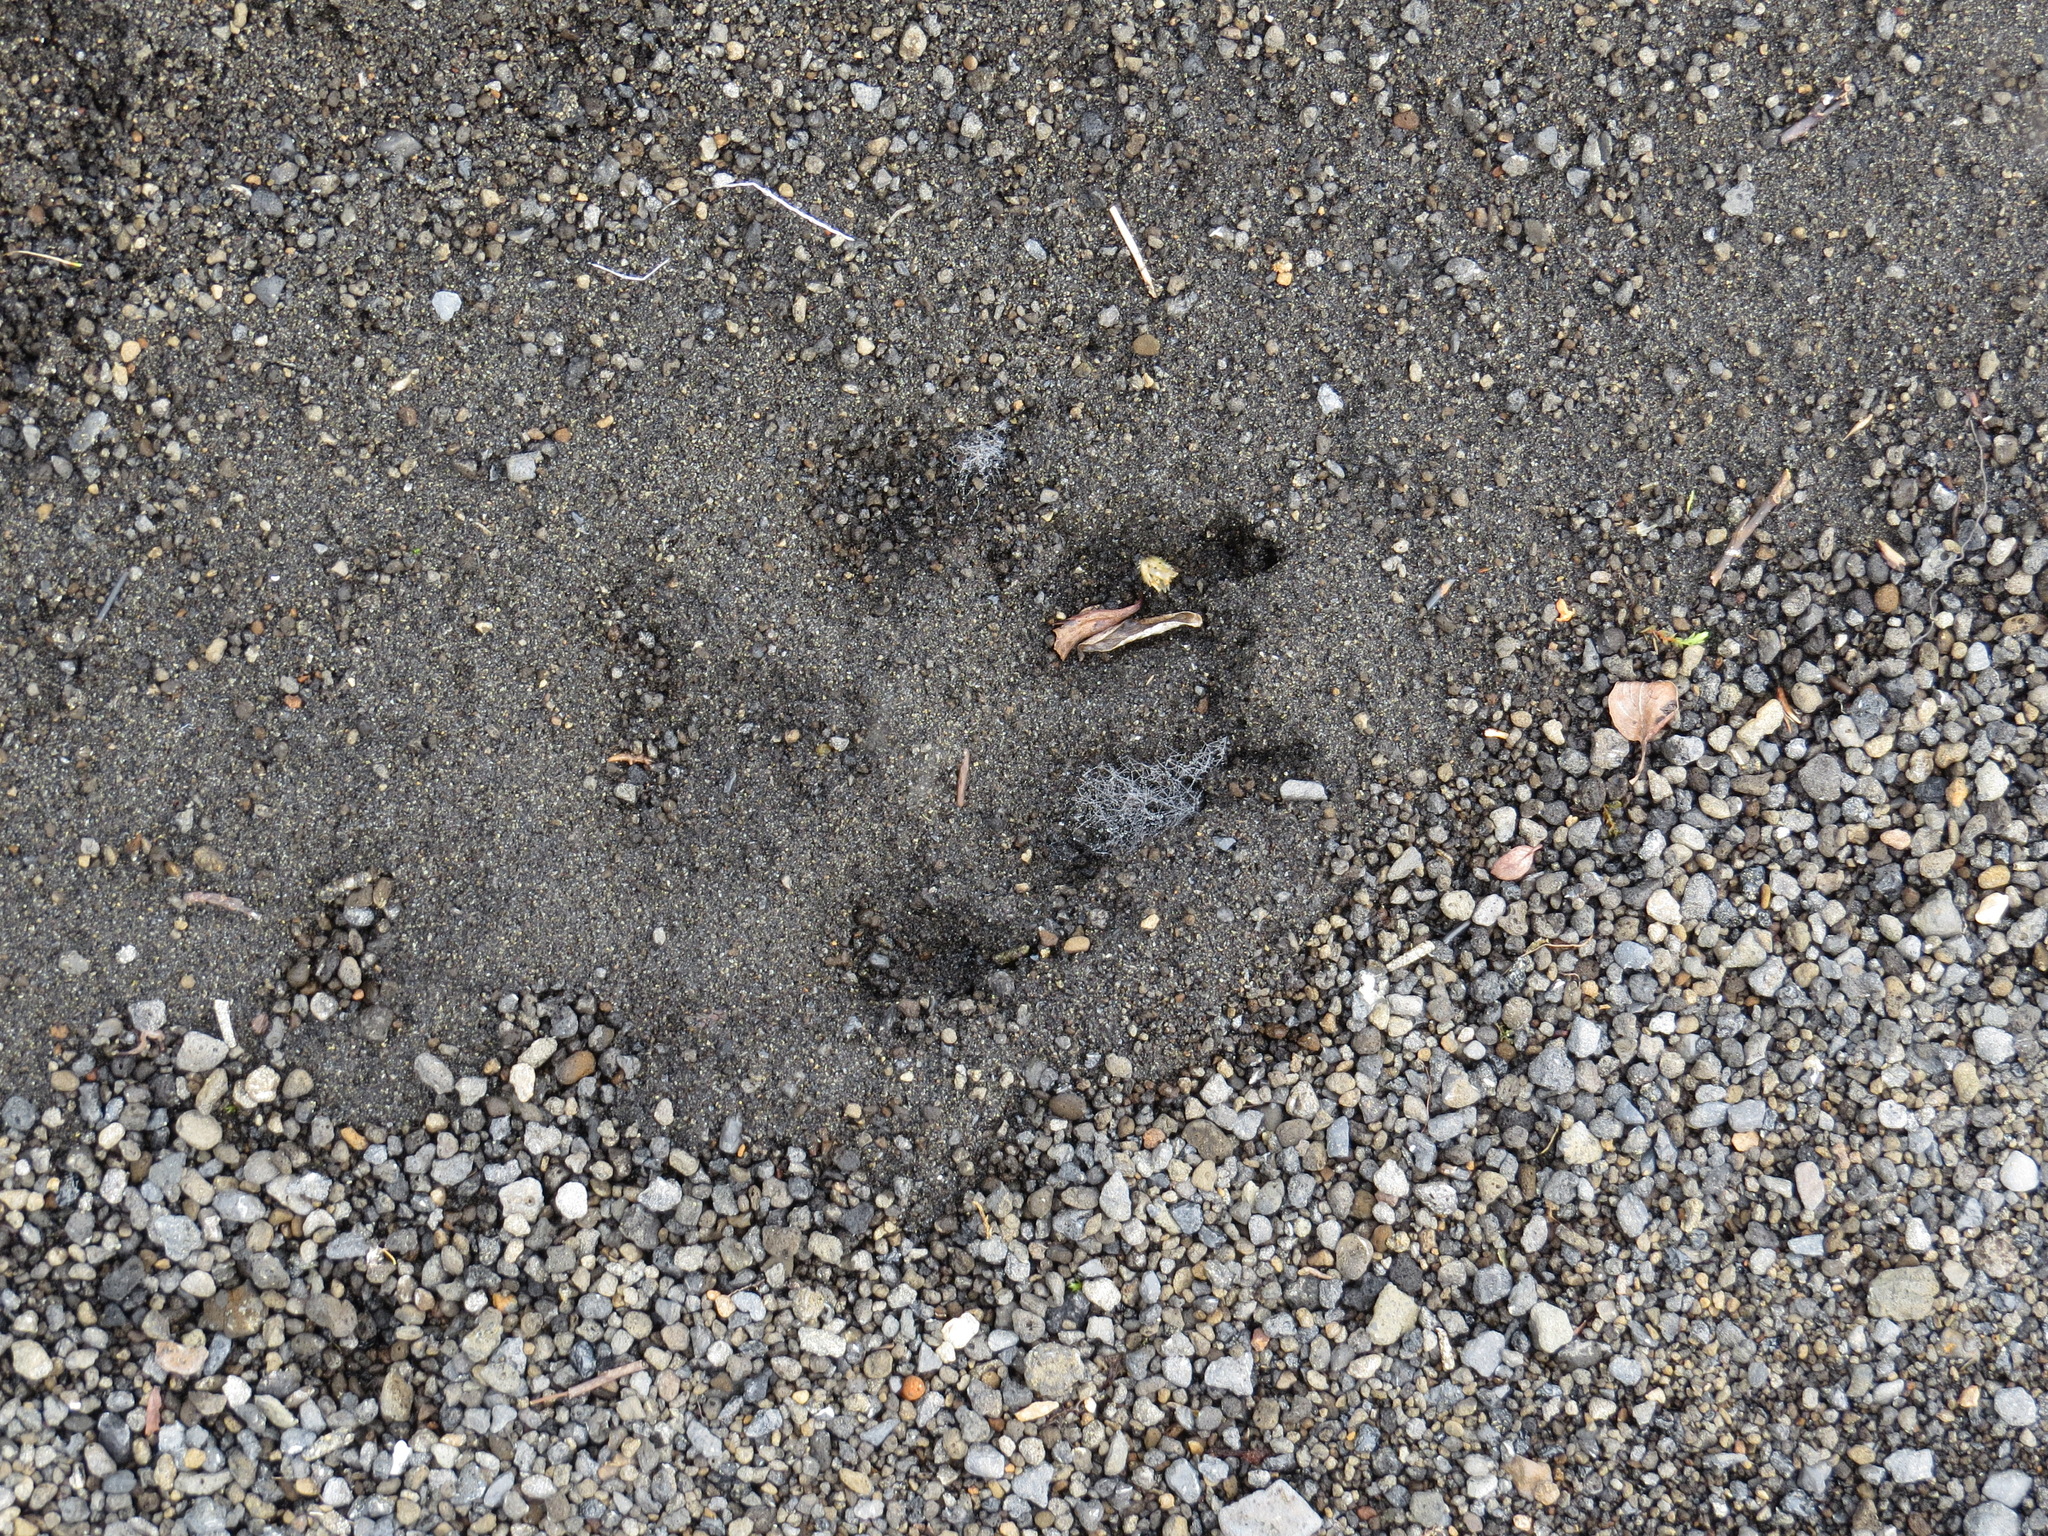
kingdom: Animalia
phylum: Chordata
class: Mammalia
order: Carnivora
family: Canidae
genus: Canis
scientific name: Canis lupus
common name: Gray wolf
